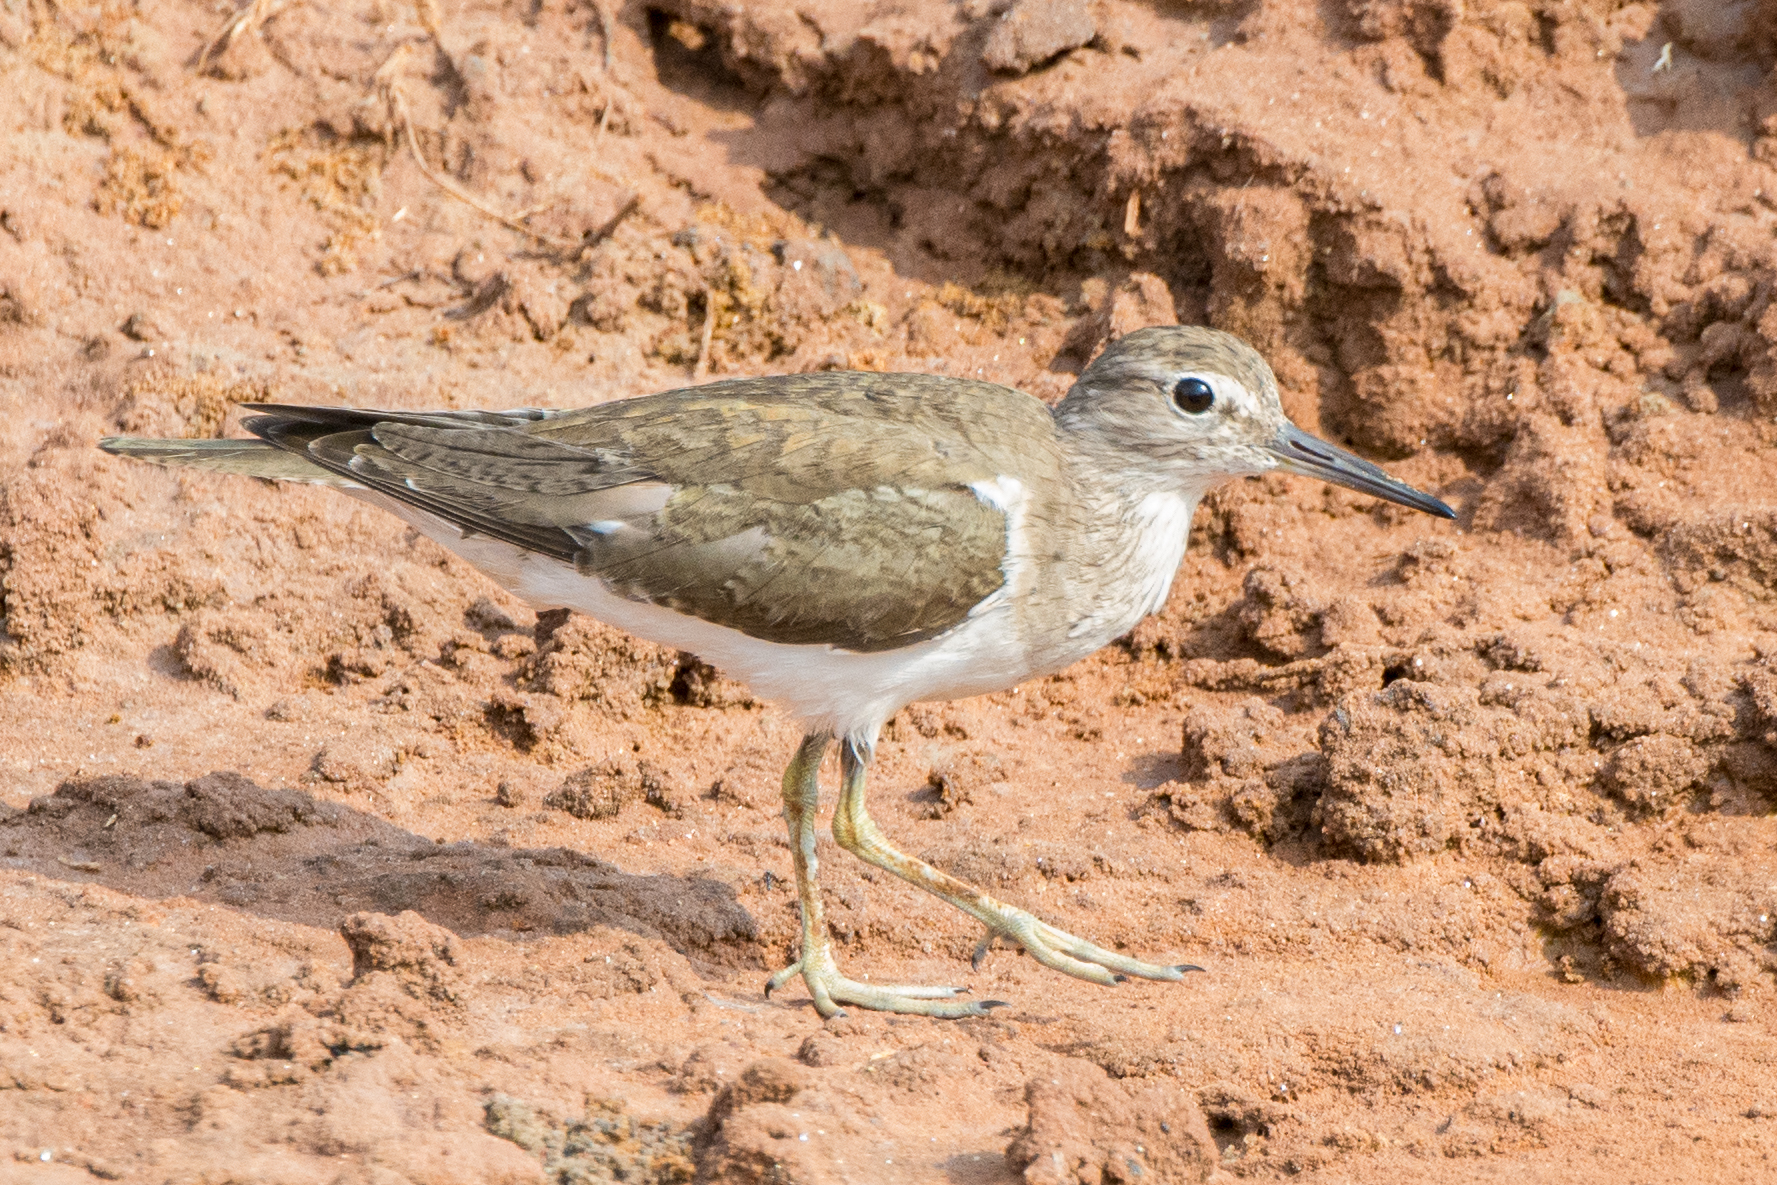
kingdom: Animalia
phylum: Chordata
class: Aves
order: Charadriiformes
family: Scolopacidae
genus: Actitis
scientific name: Actitis hypoleucos
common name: Common sandpiper
